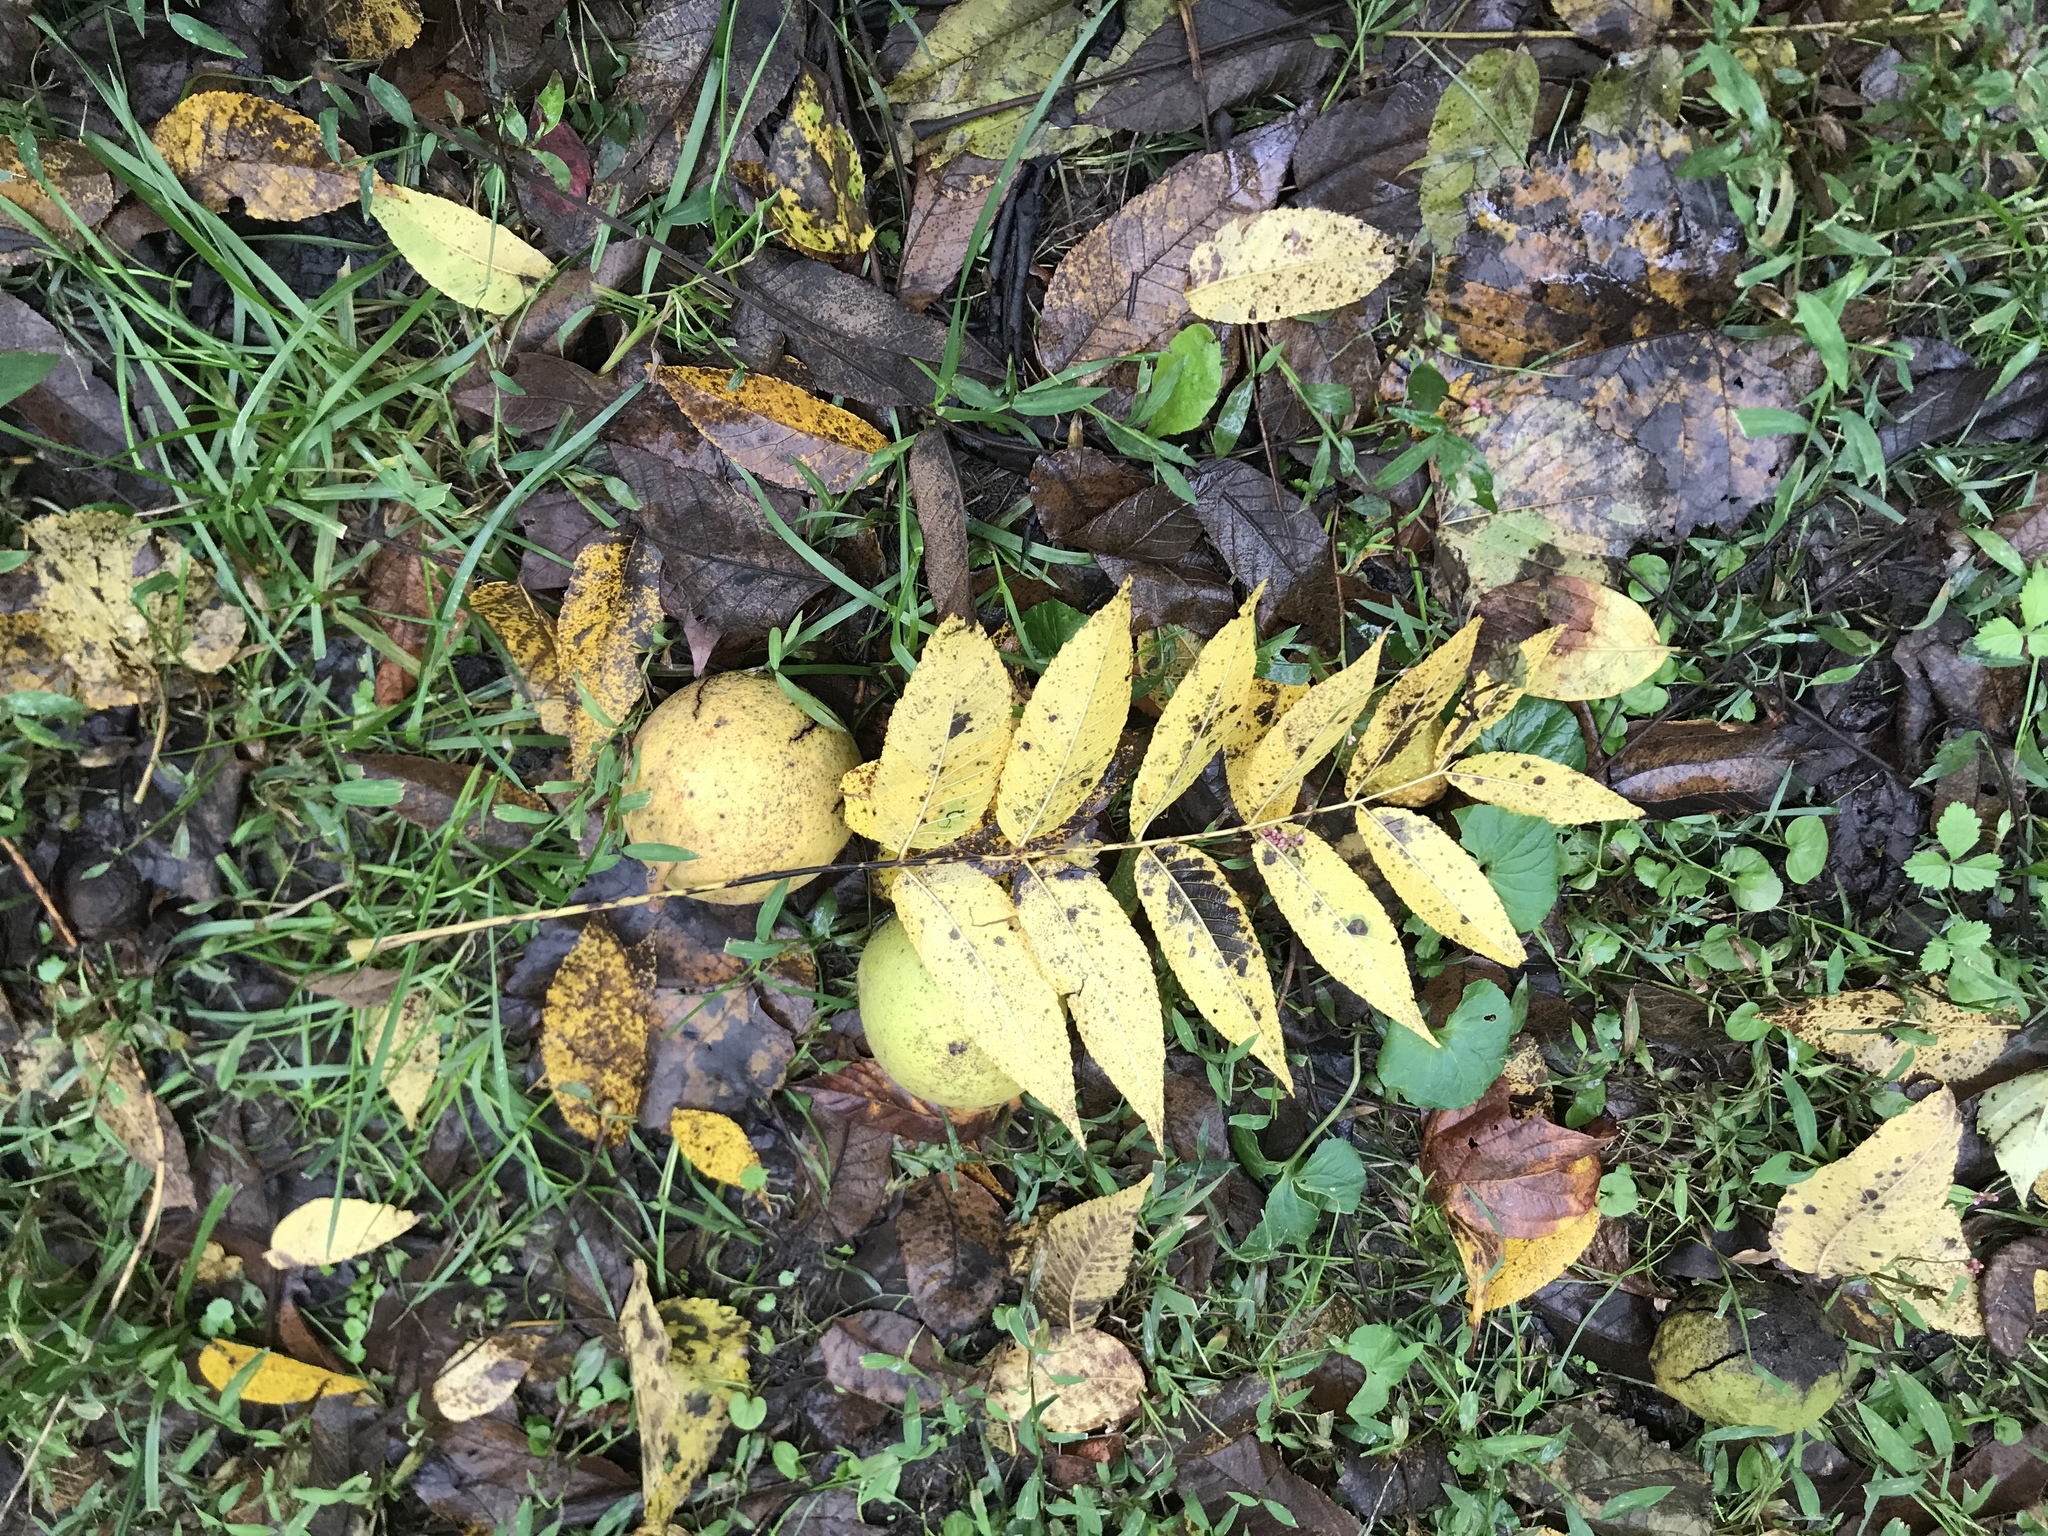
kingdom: Plantae
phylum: Tracheophyta
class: Magnoliopsida
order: Fagales
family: Juglandaceae
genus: Juglans
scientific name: Juglans nigra
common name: Black walnut
